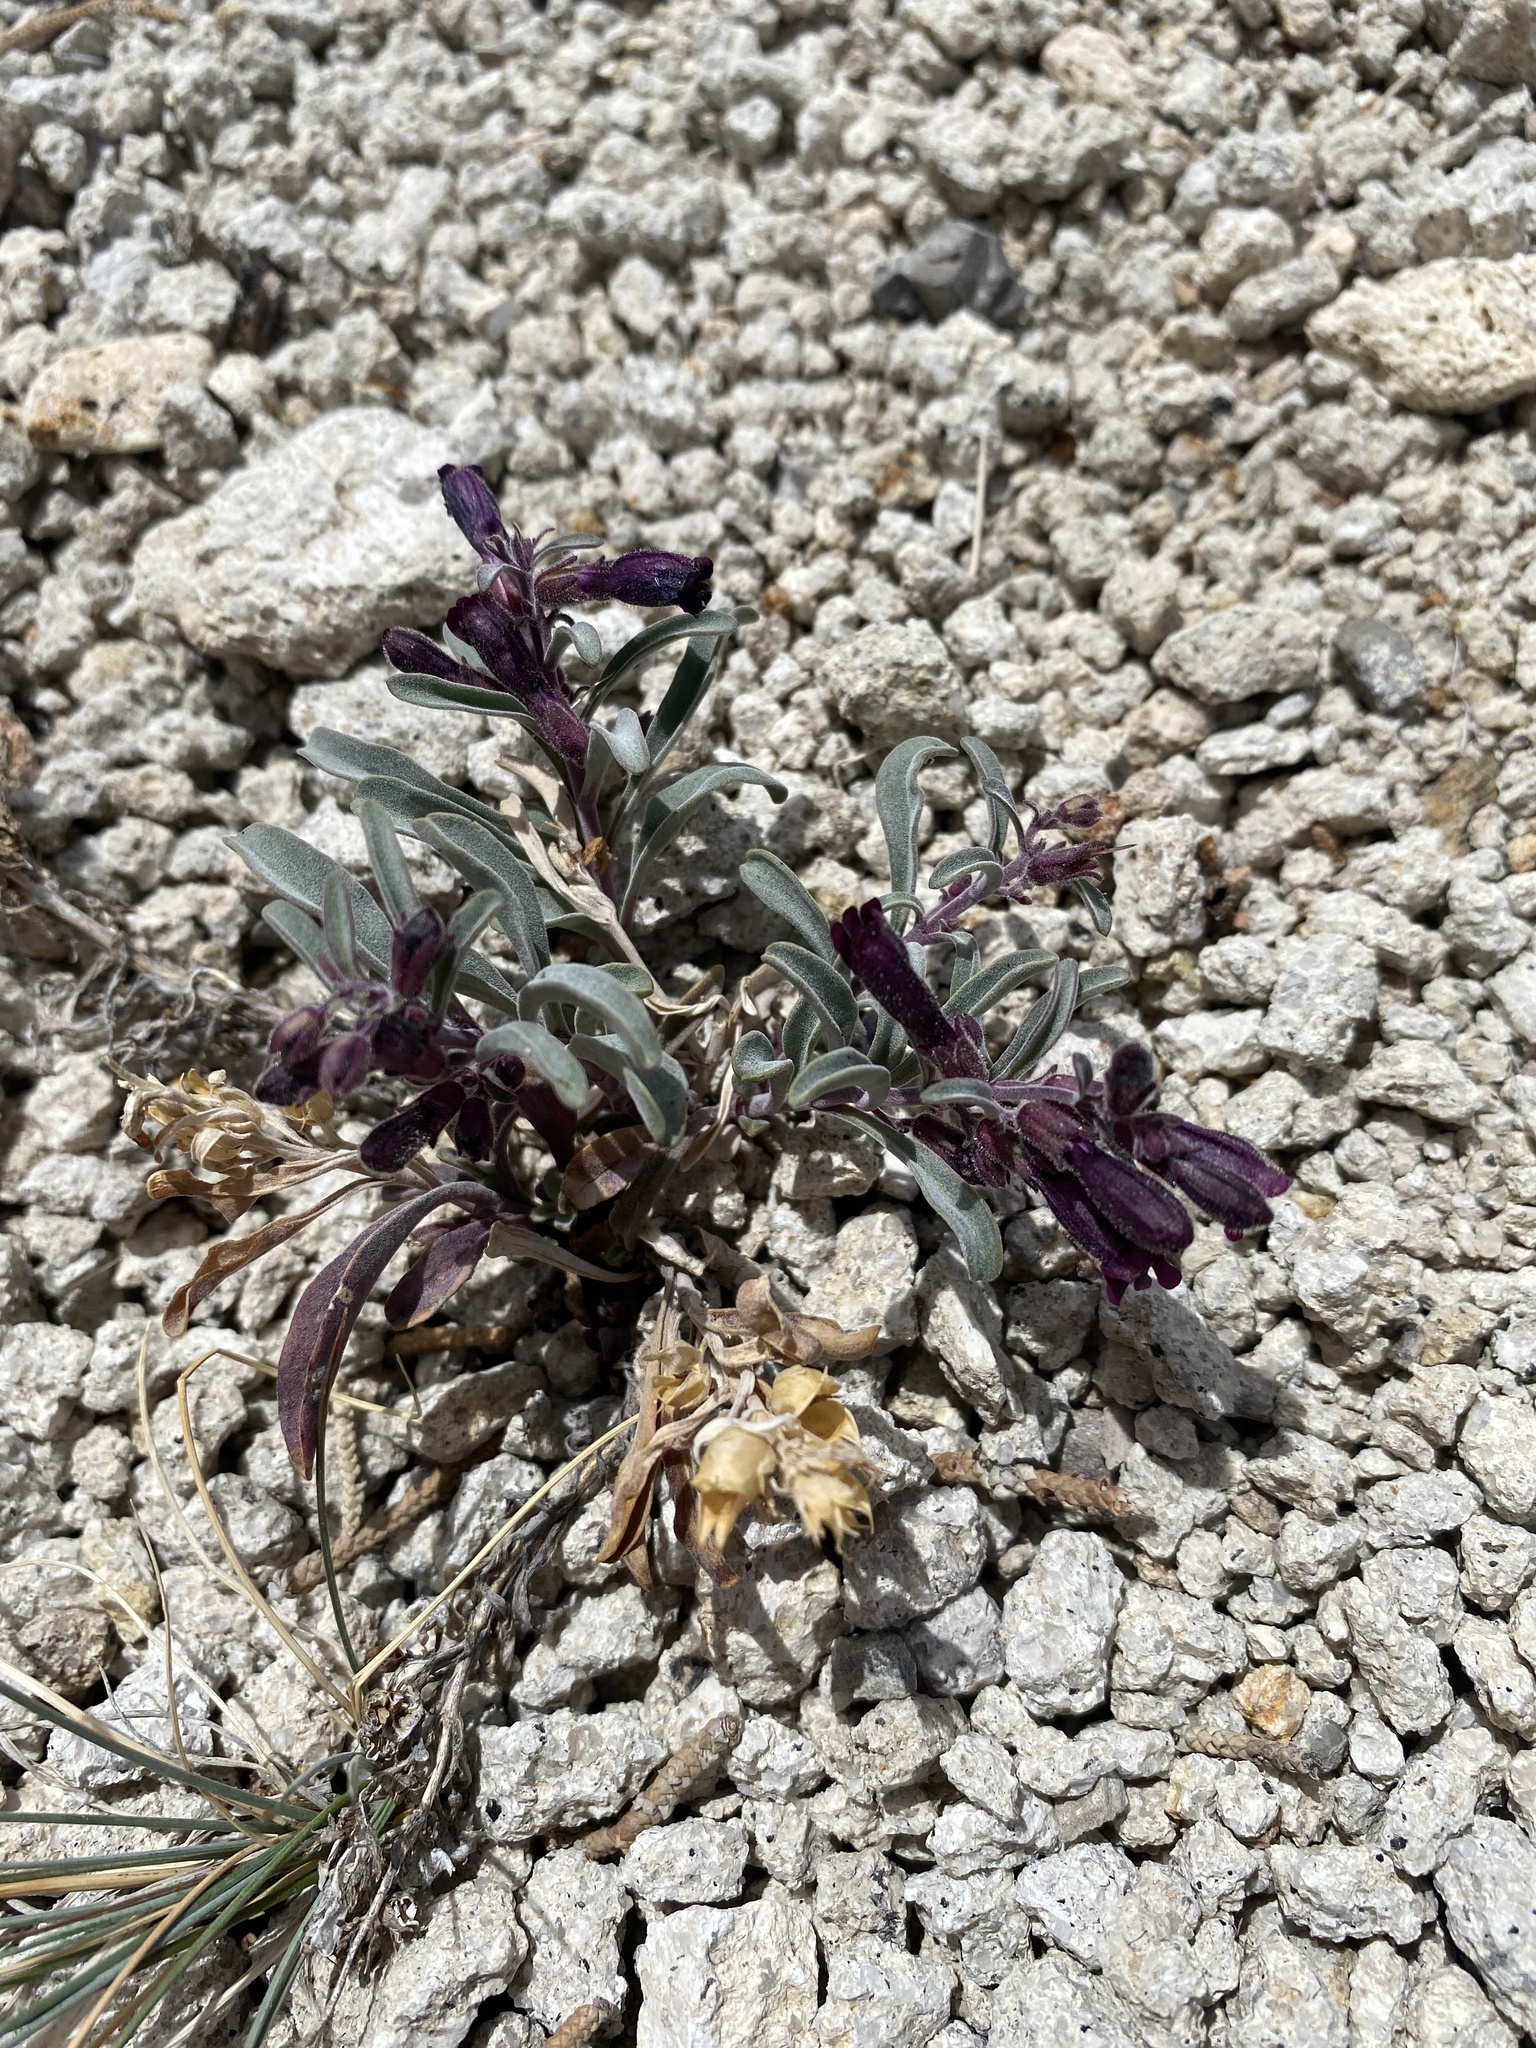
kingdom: Plantae
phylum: Tracheophyta
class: Magnoliopsida
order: Lamiales
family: Plantaginaceae
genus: Penstemon
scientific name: Penstemon kingii
